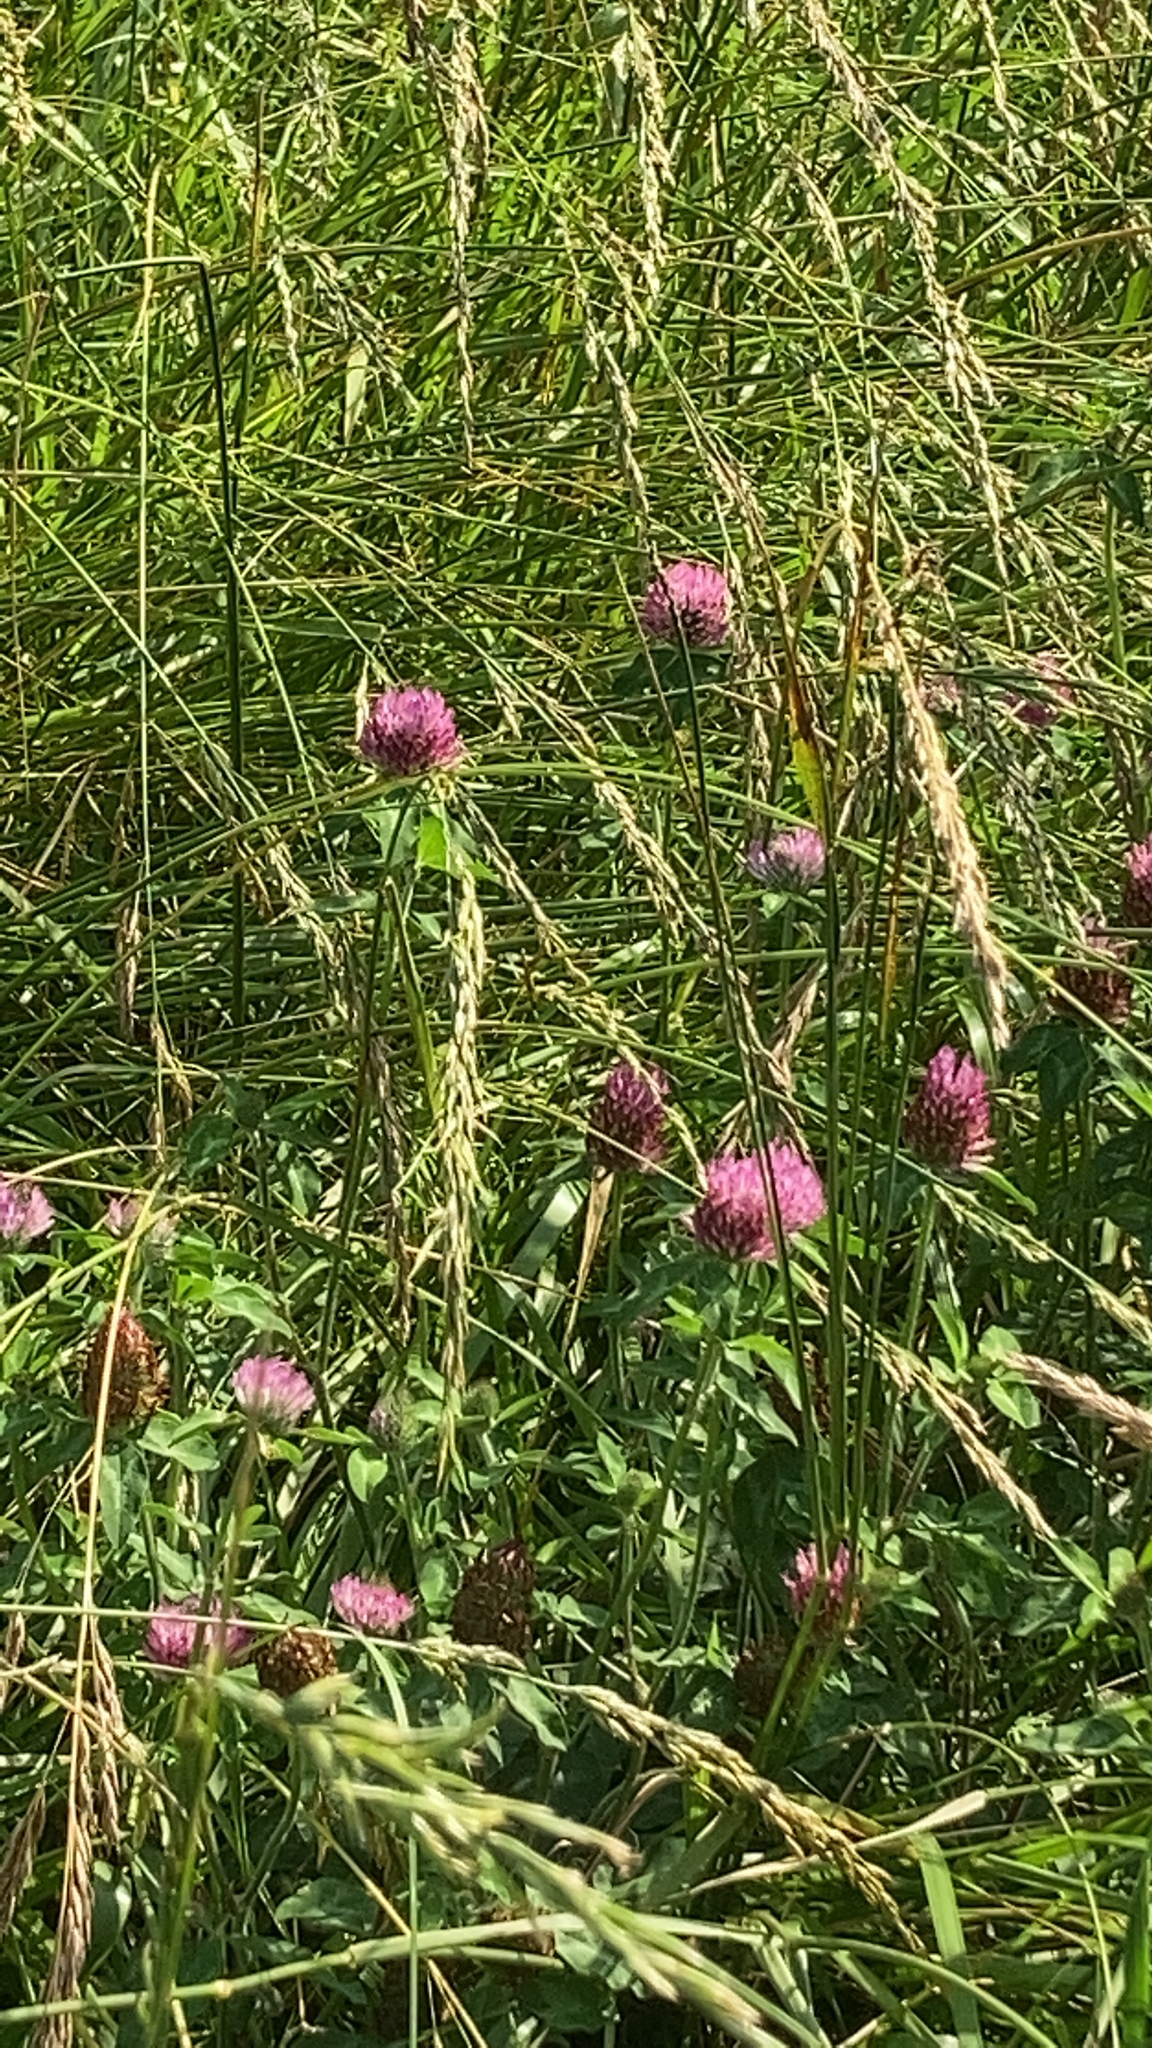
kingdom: Plantae
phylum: Tracheophyta
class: Magnoliopsida
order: Fabales
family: Fabaceae
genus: Trifolium
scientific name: Trifolium pratense
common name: Red clover
